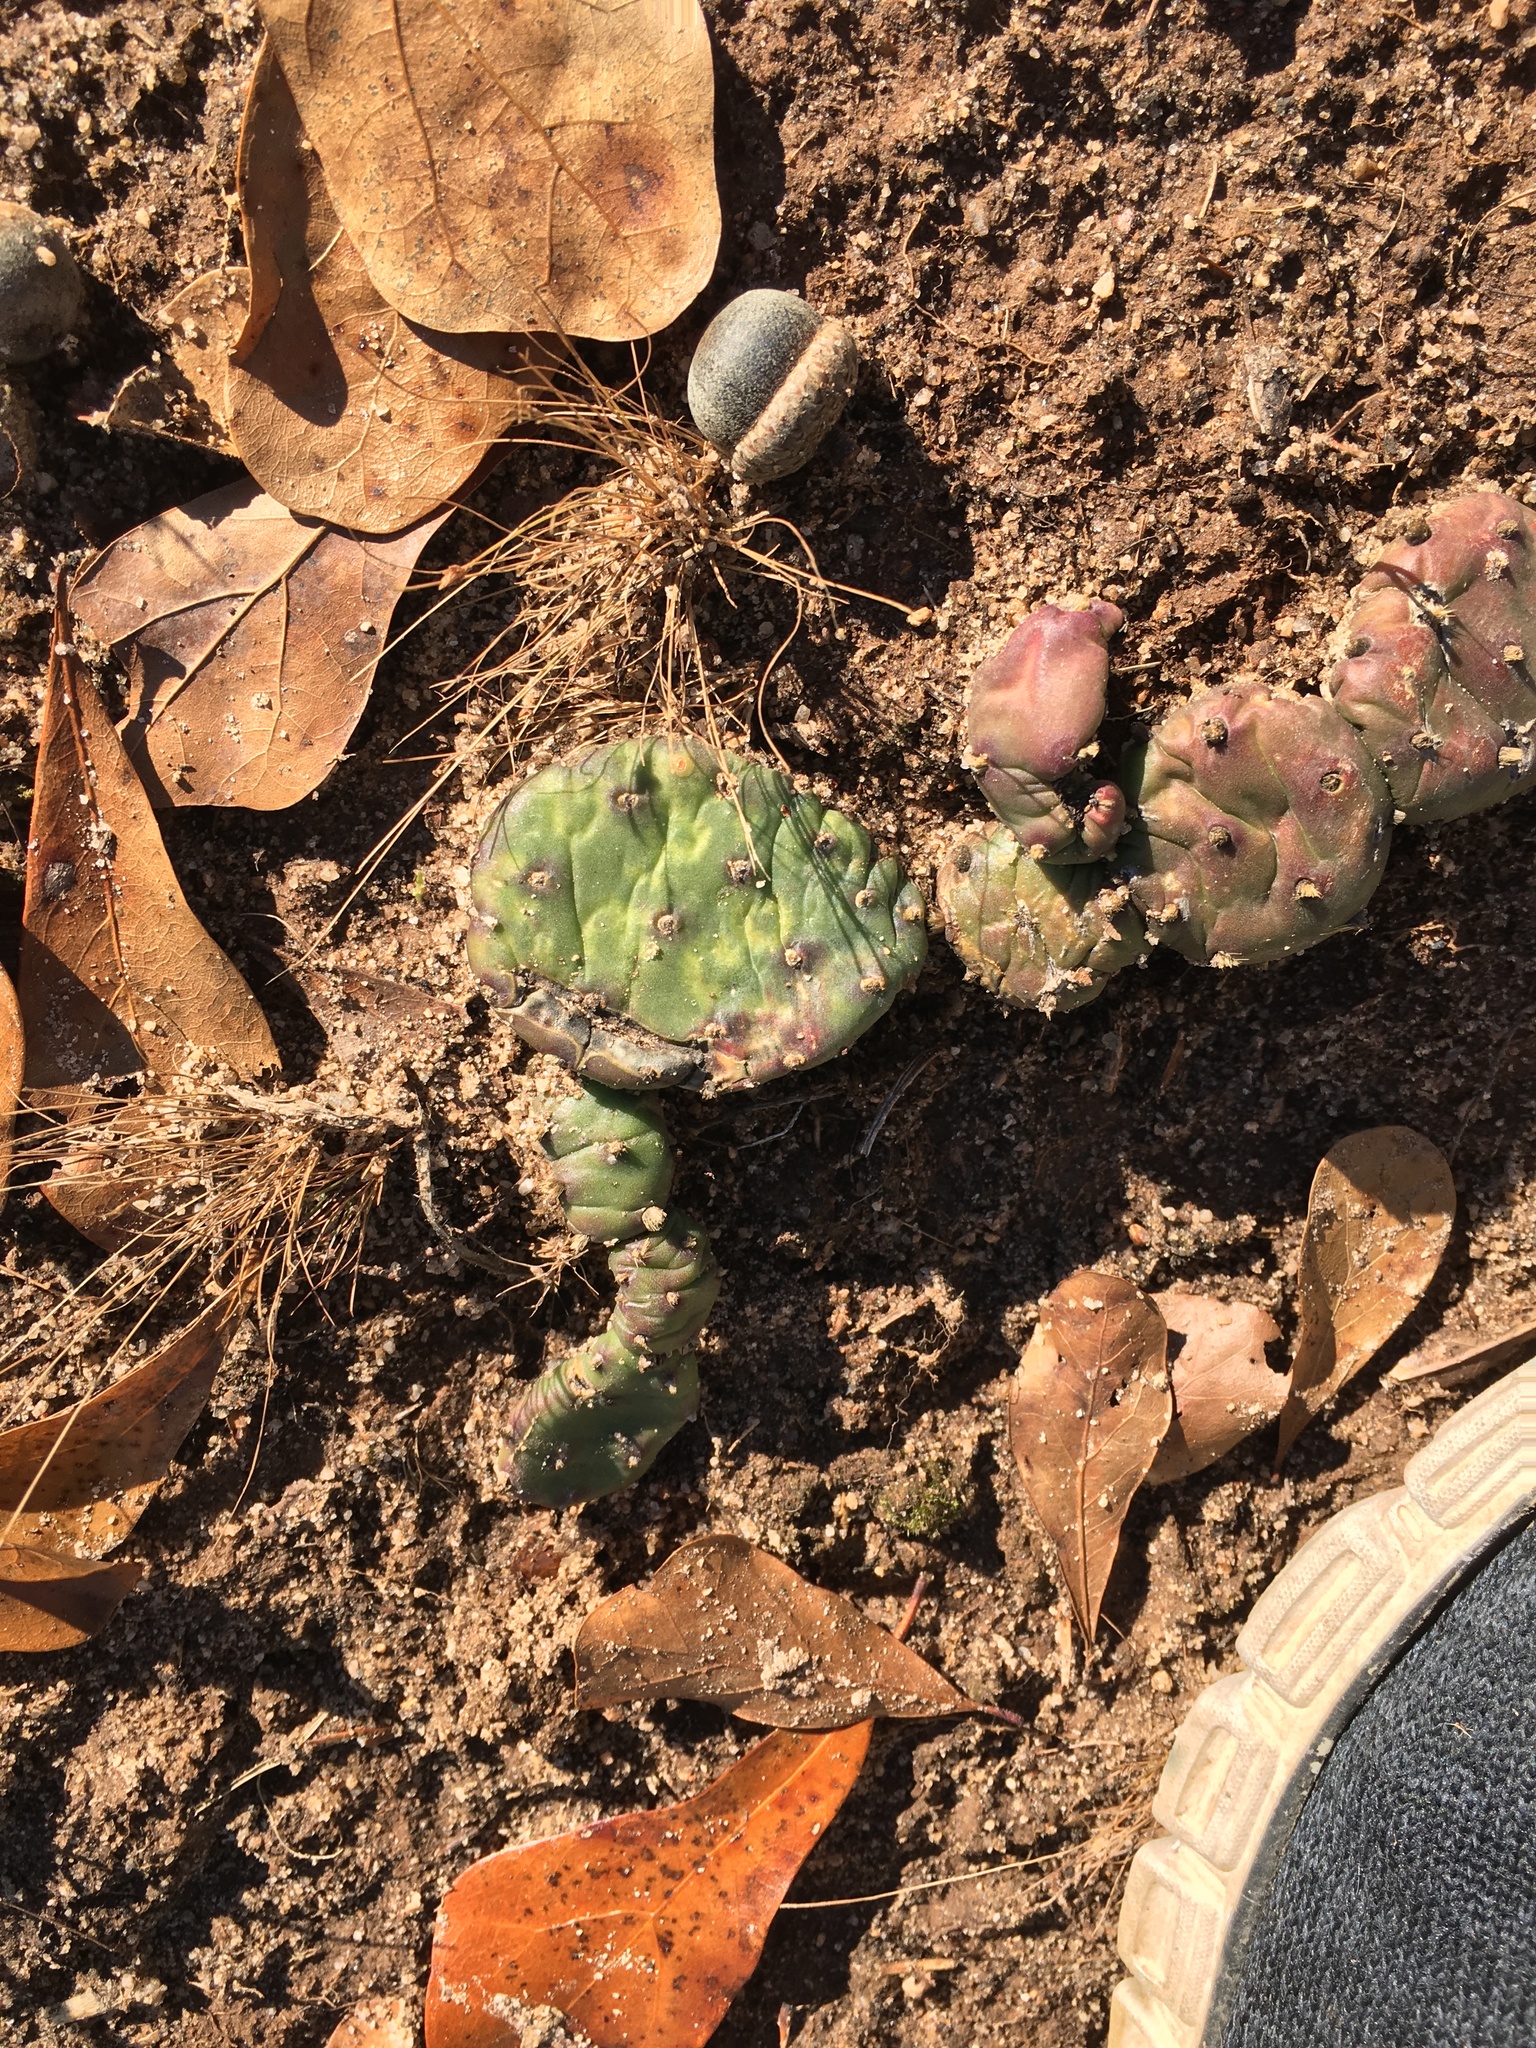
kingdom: Plantae
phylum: Tracheophyta
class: Magnoliopsida
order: Caryophyllales
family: Cactaceae
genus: Opuntia
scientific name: Opuntia mesacantha
